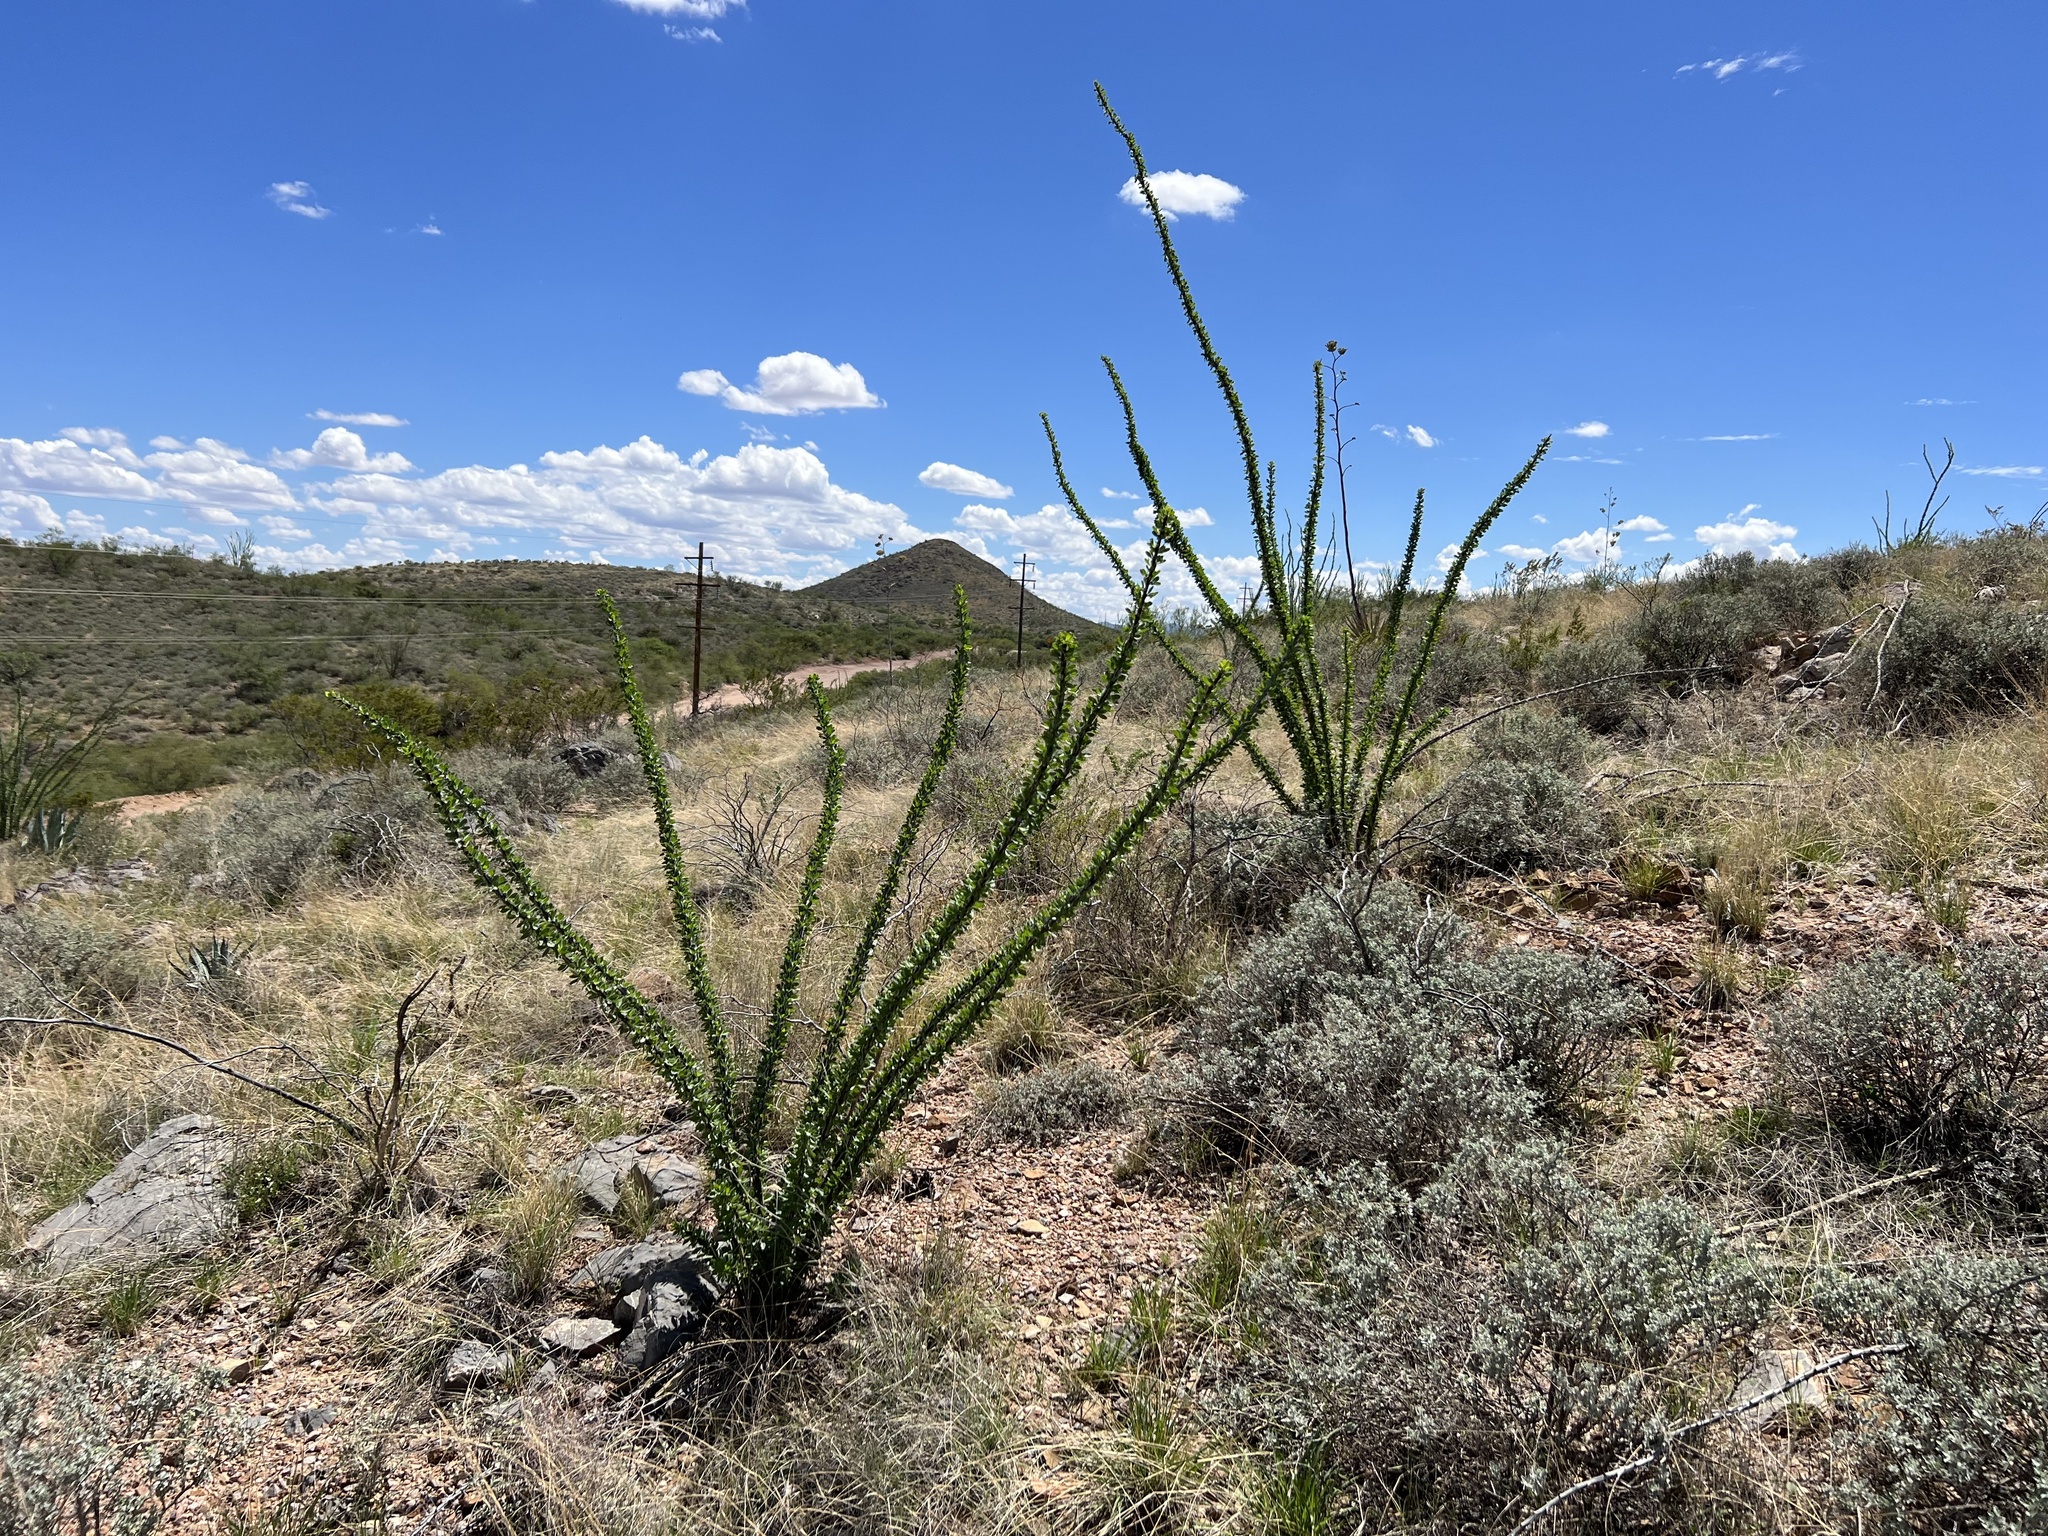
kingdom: Plantae
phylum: Tracheophyta
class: Magnoliopsida
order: Ericales
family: Fouquieriaceae
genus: Fouquieria
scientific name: Fouquieria splendens
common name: Vine-cactus
